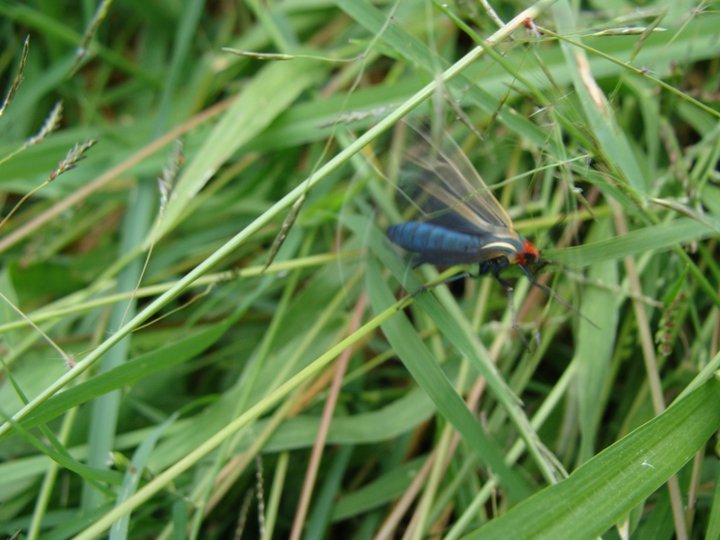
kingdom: Animalia
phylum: Arthropoda
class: Insecta
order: Lepidoptera
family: Erebidae
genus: Ctenucha
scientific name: Ctenucha venosa
